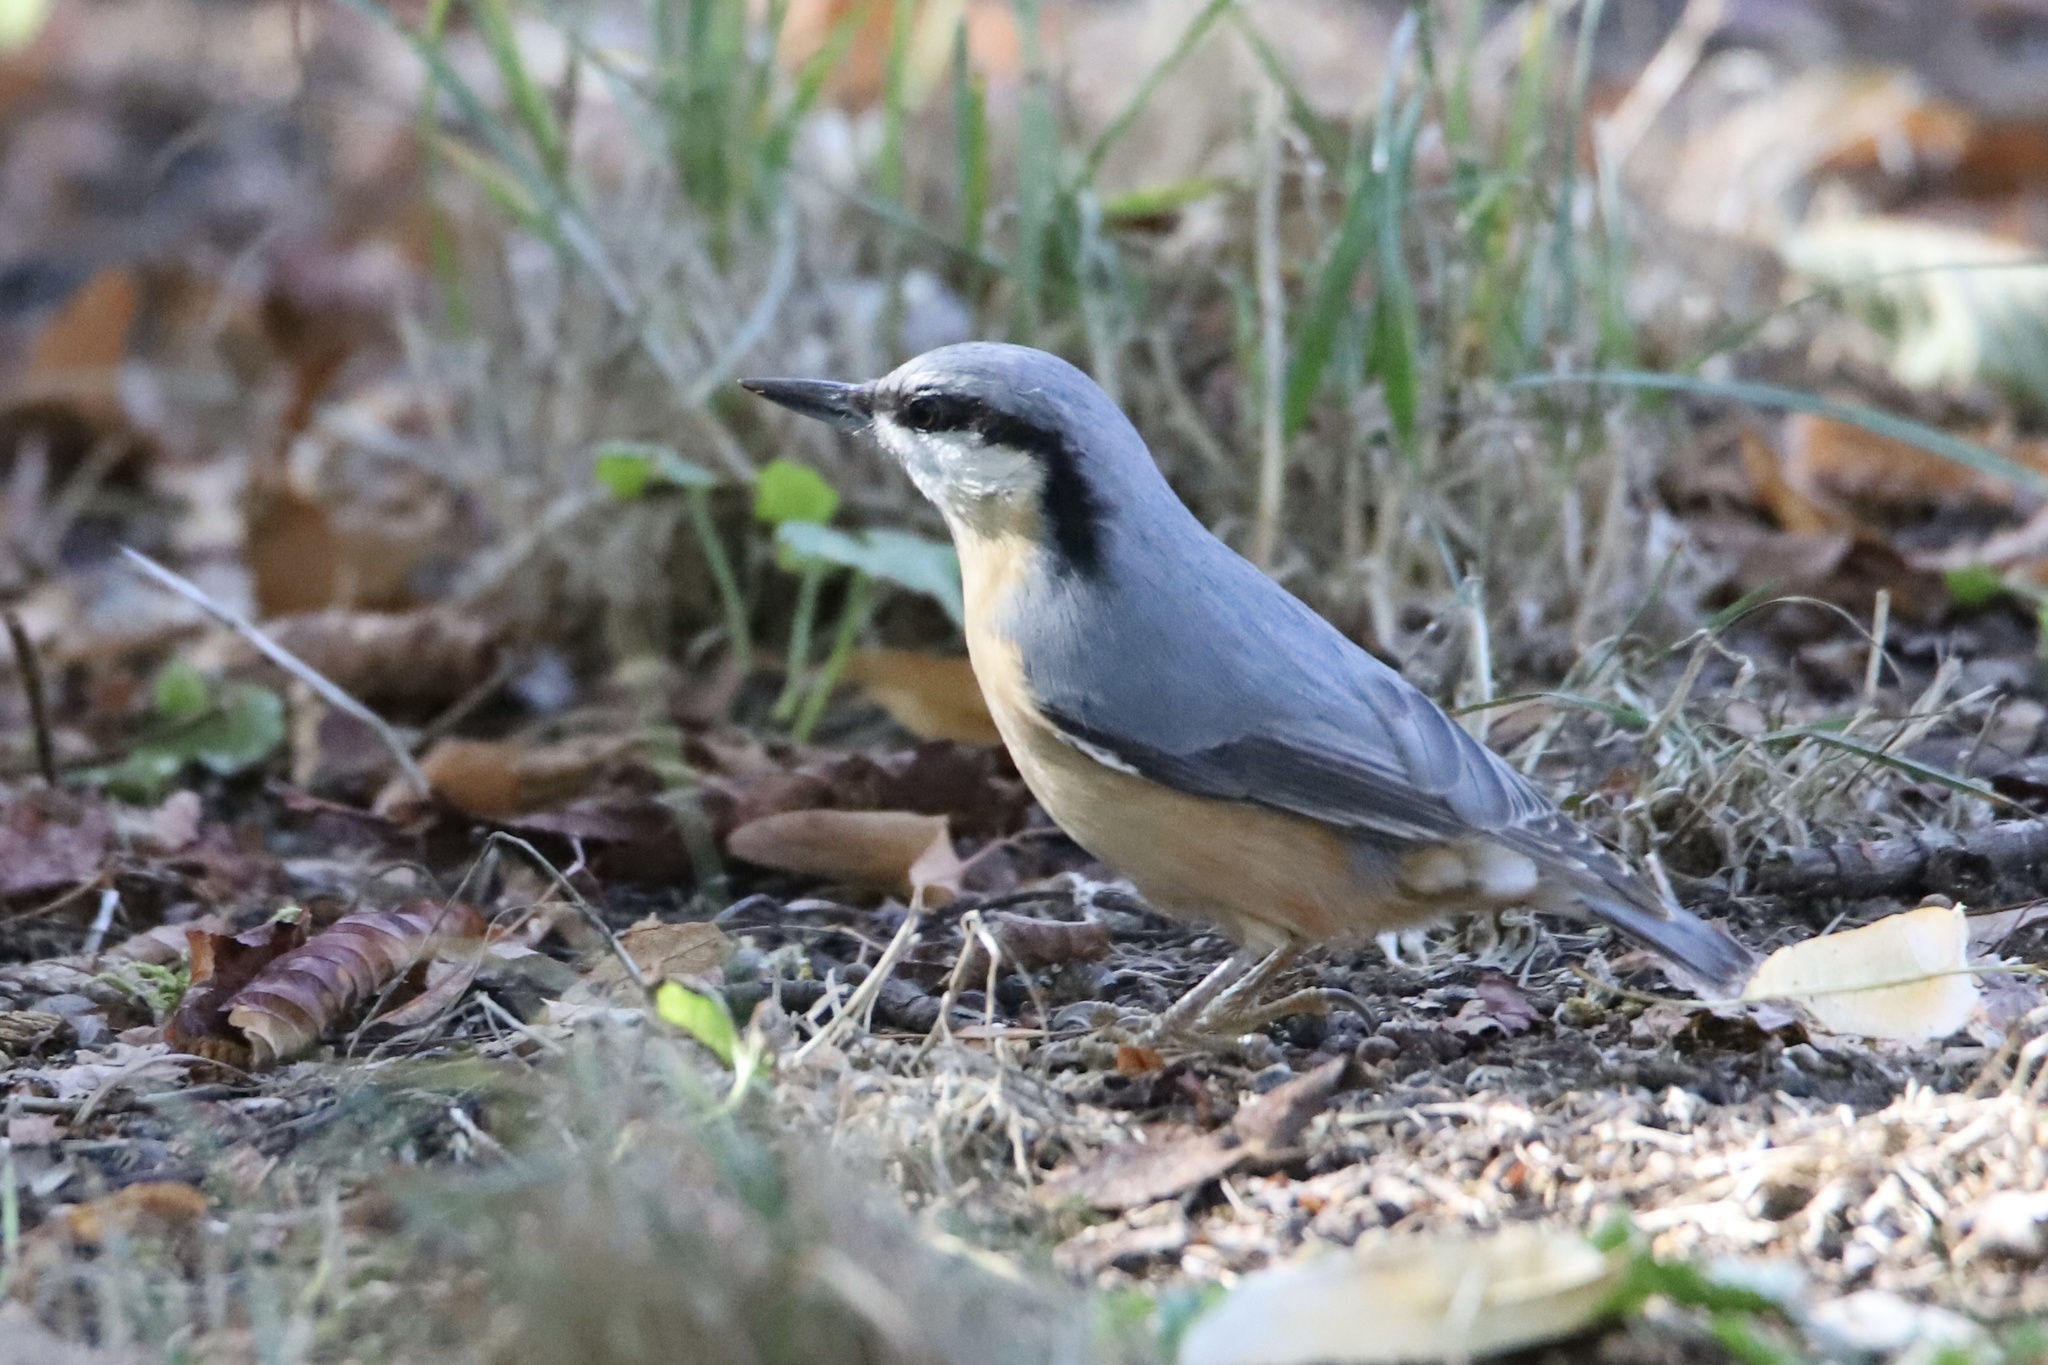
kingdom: Animalia
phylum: Chordata
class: Aves
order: Passeriformes
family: Sittidae
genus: Sitta
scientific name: Sitta europaea
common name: Eurasian nuthatch
